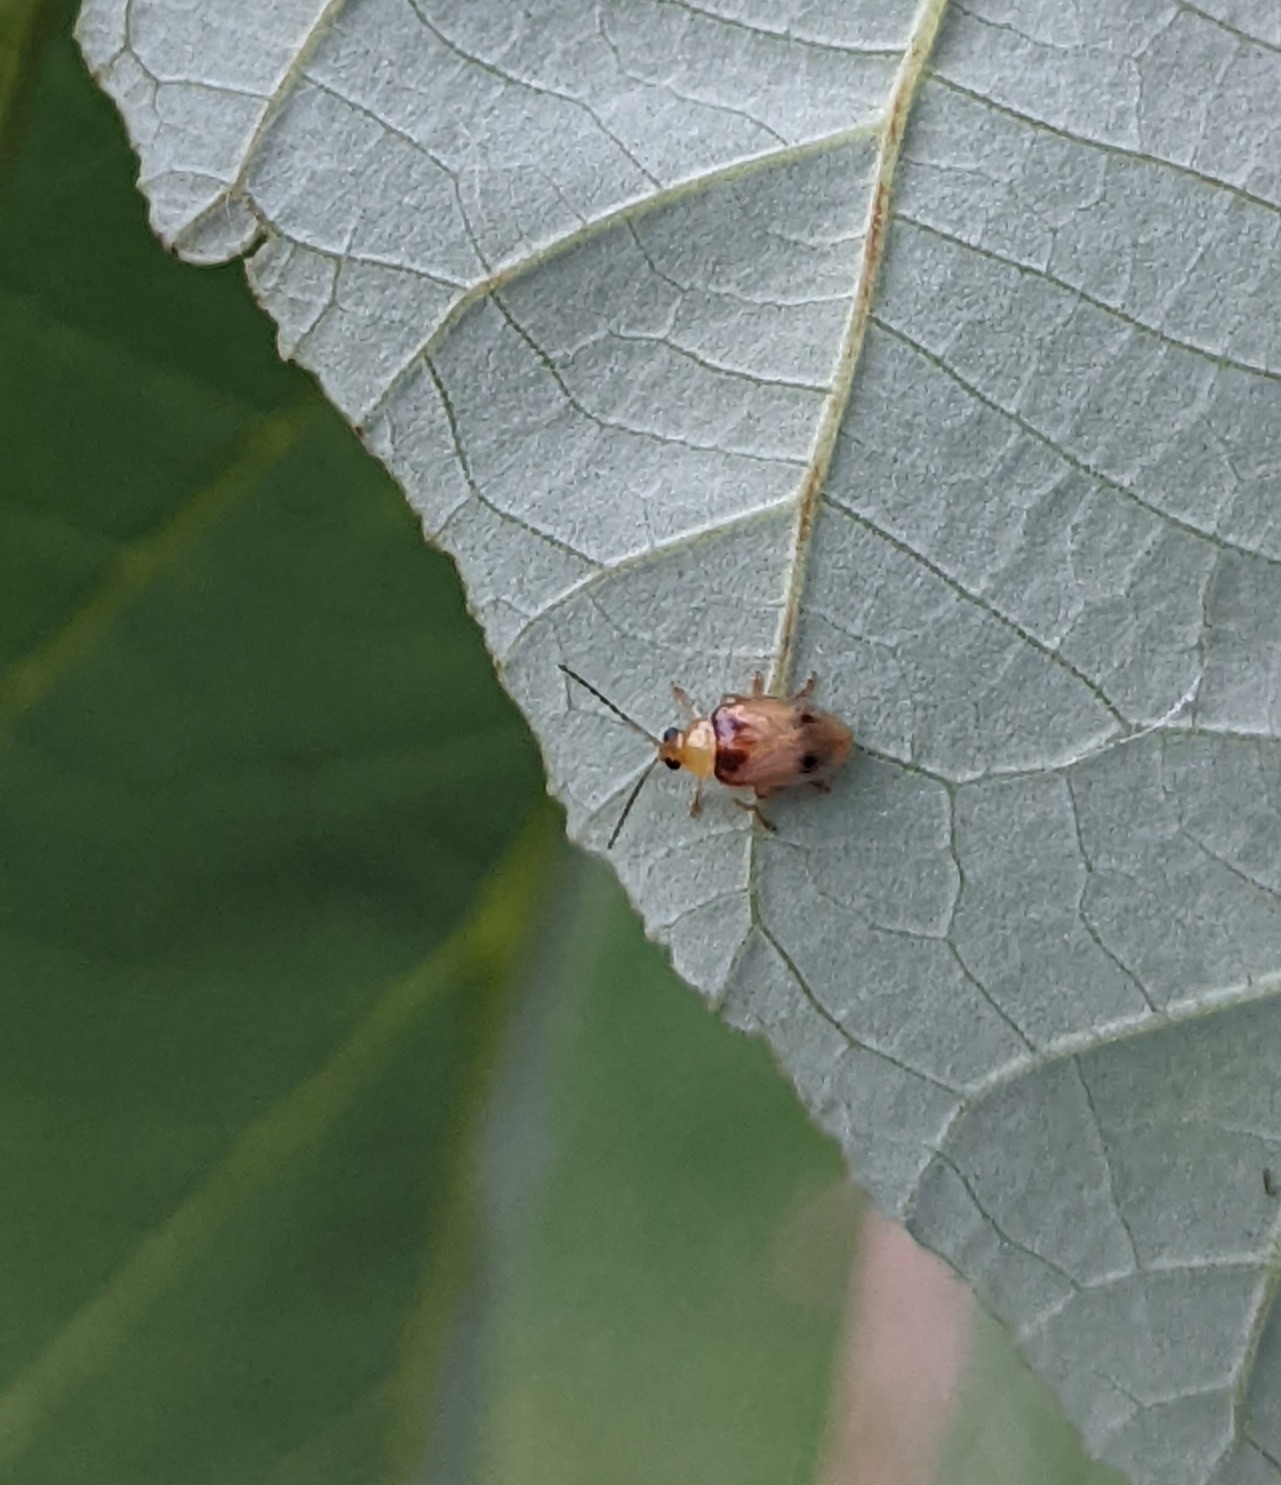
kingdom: Animalia
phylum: Arthropoda
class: Insecta
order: Coleoptera
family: Chrysomelidae
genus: Monolepta
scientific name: Monolepta
